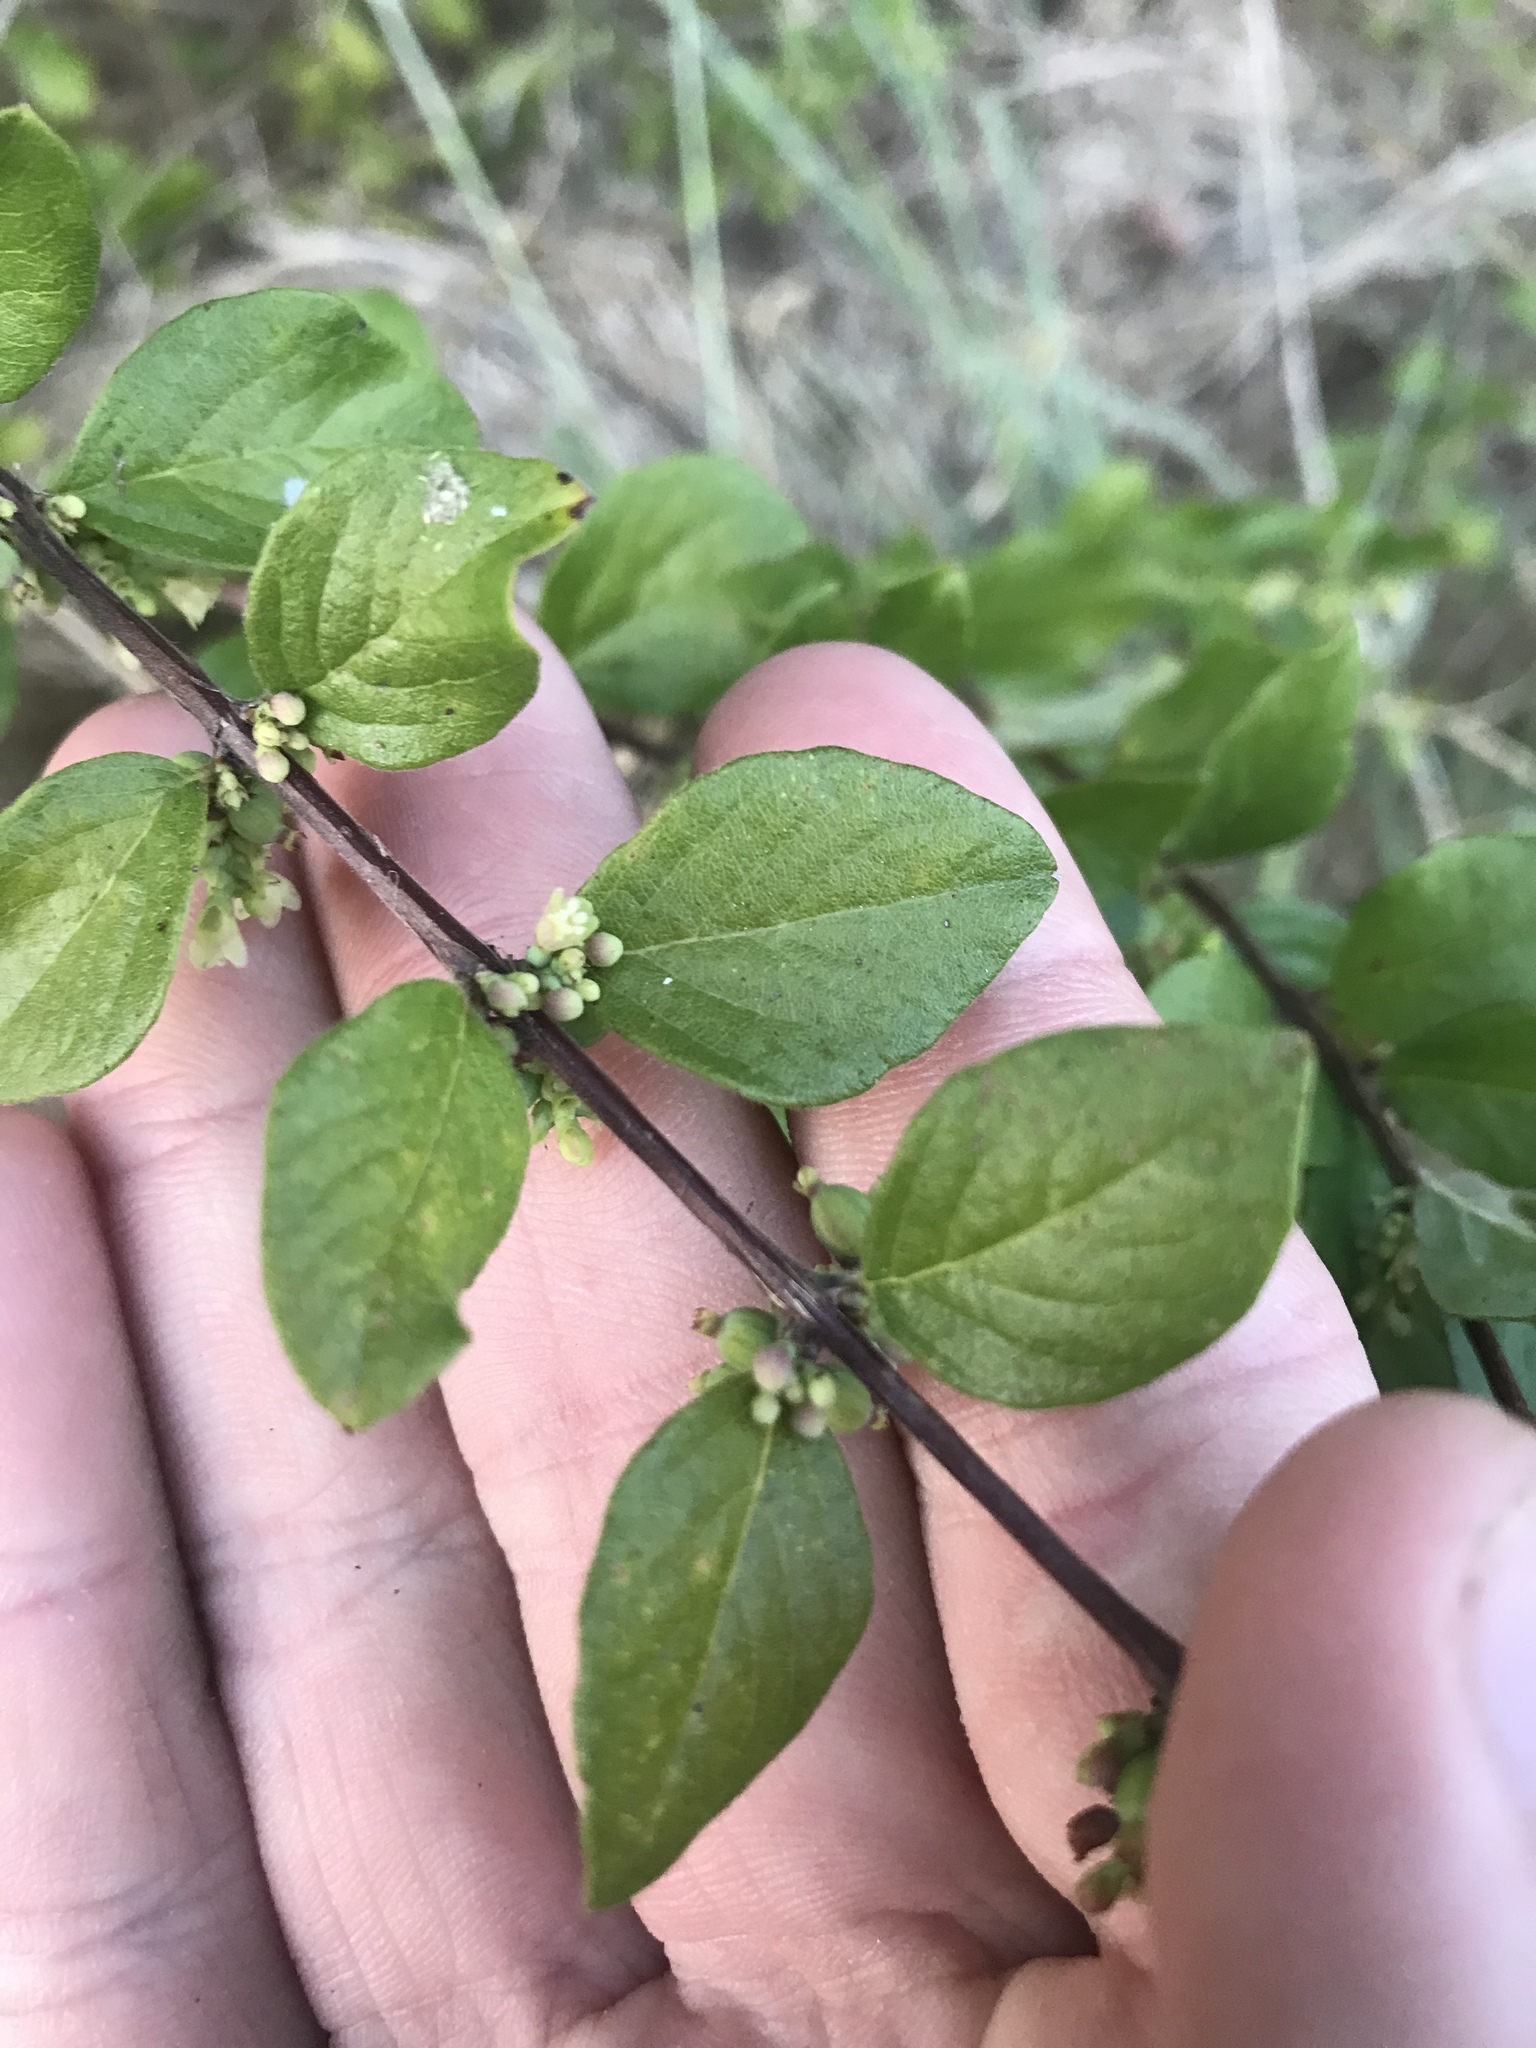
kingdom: Plantae
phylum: Tracheophyta
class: Magnoliopsida
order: Dipsacales
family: Caprifoliaceae
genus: Symphoricarpos
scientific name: Symphoricarpos orbiculatus
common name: Coralberry
